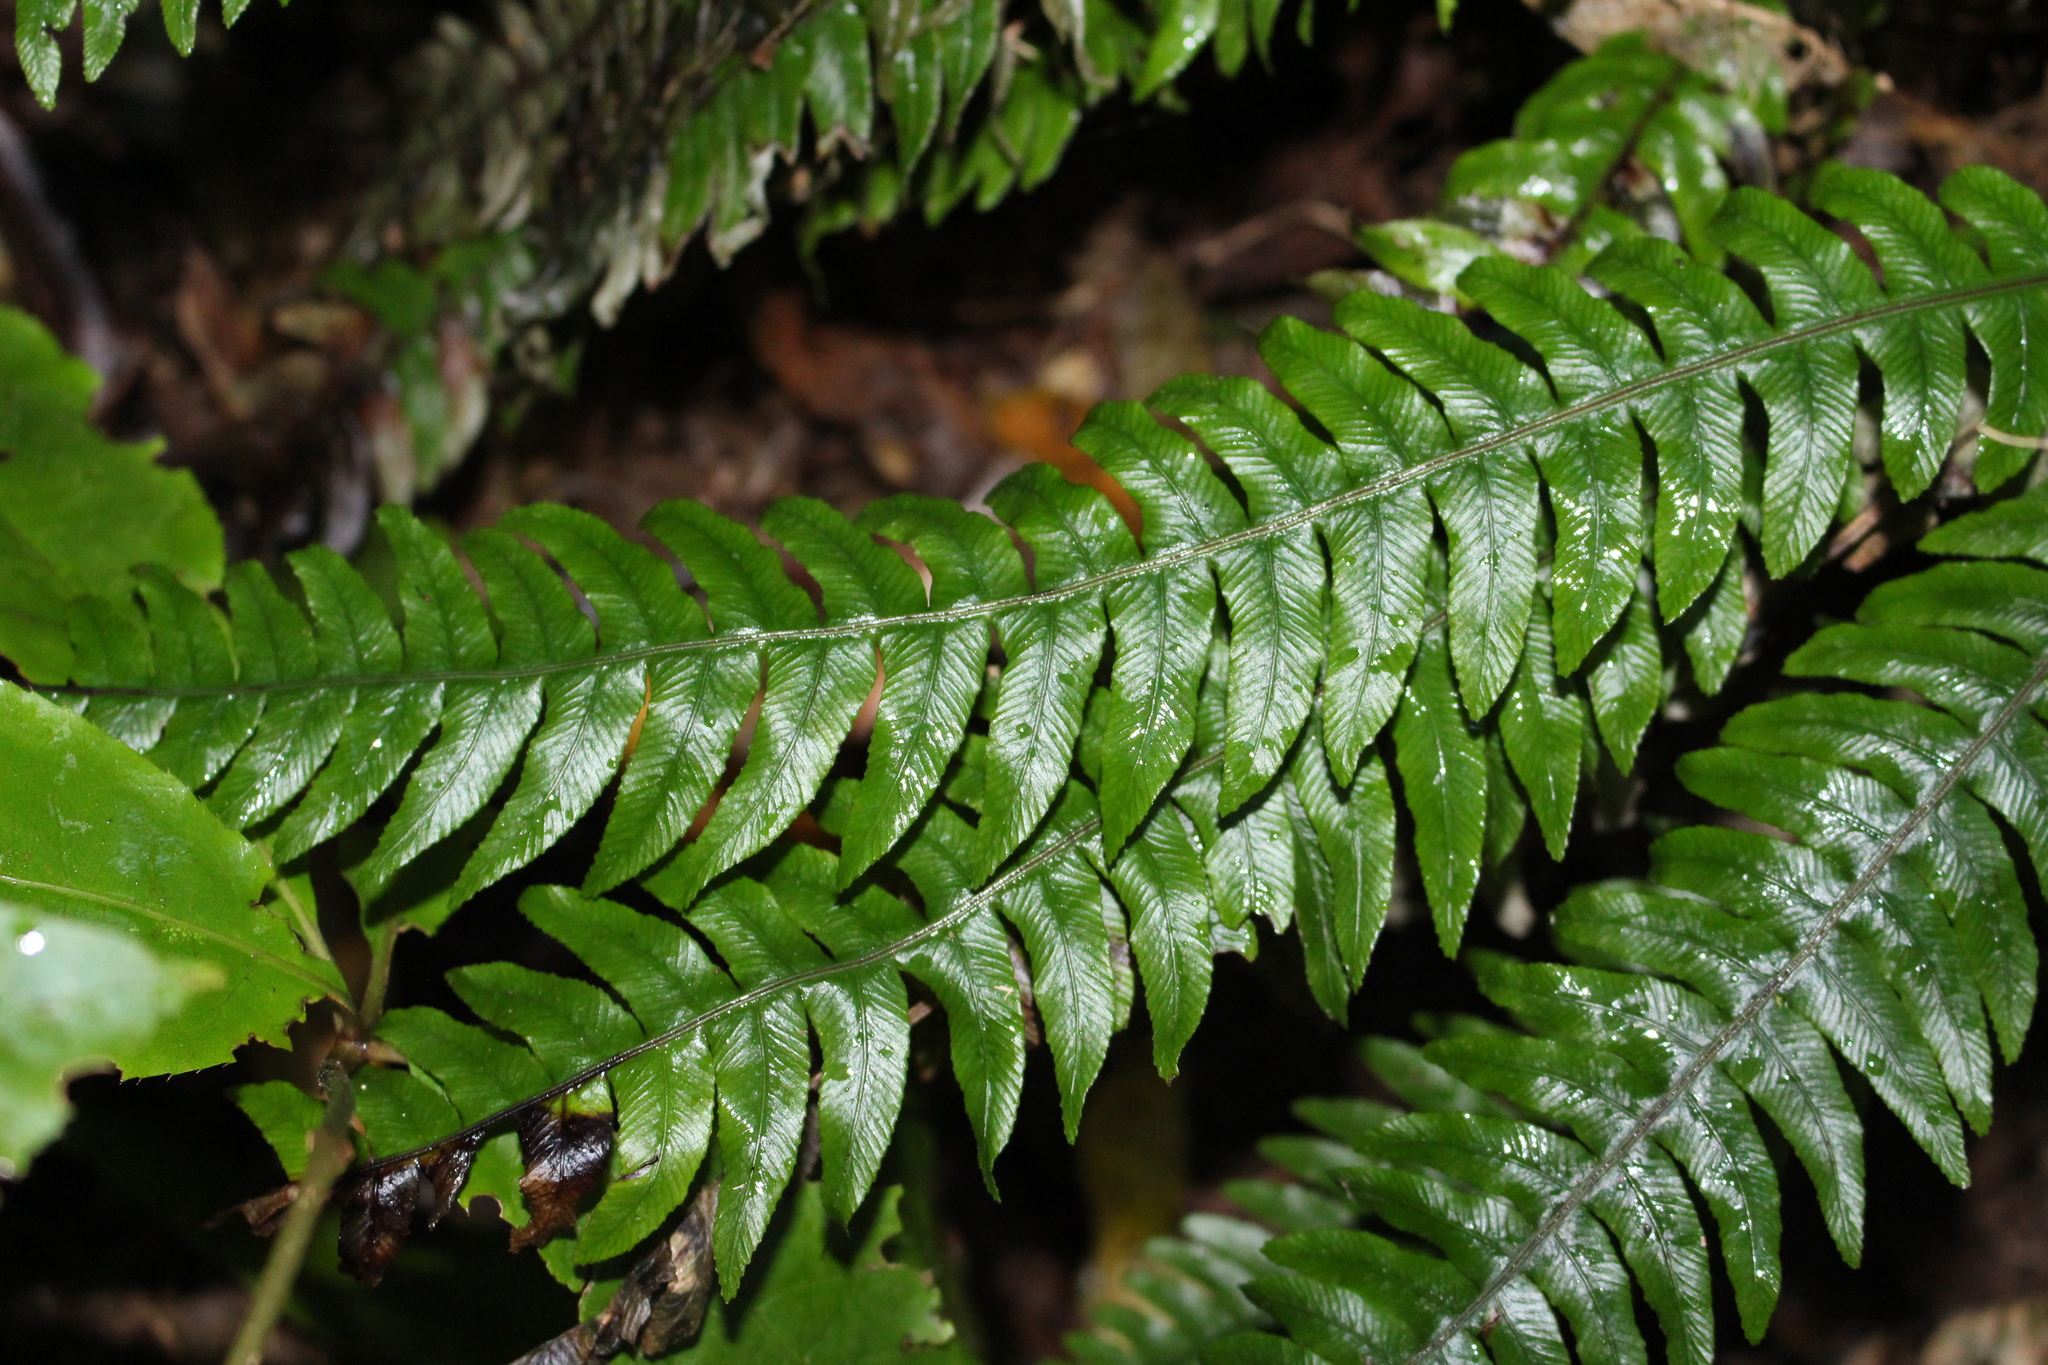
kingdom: Plantae
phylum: Tracheophyta
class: Polypodiopsida
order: Polypodiales
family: Blechnaceae
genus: Austroblechnum
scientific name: Austroblechnum lanceolatum
